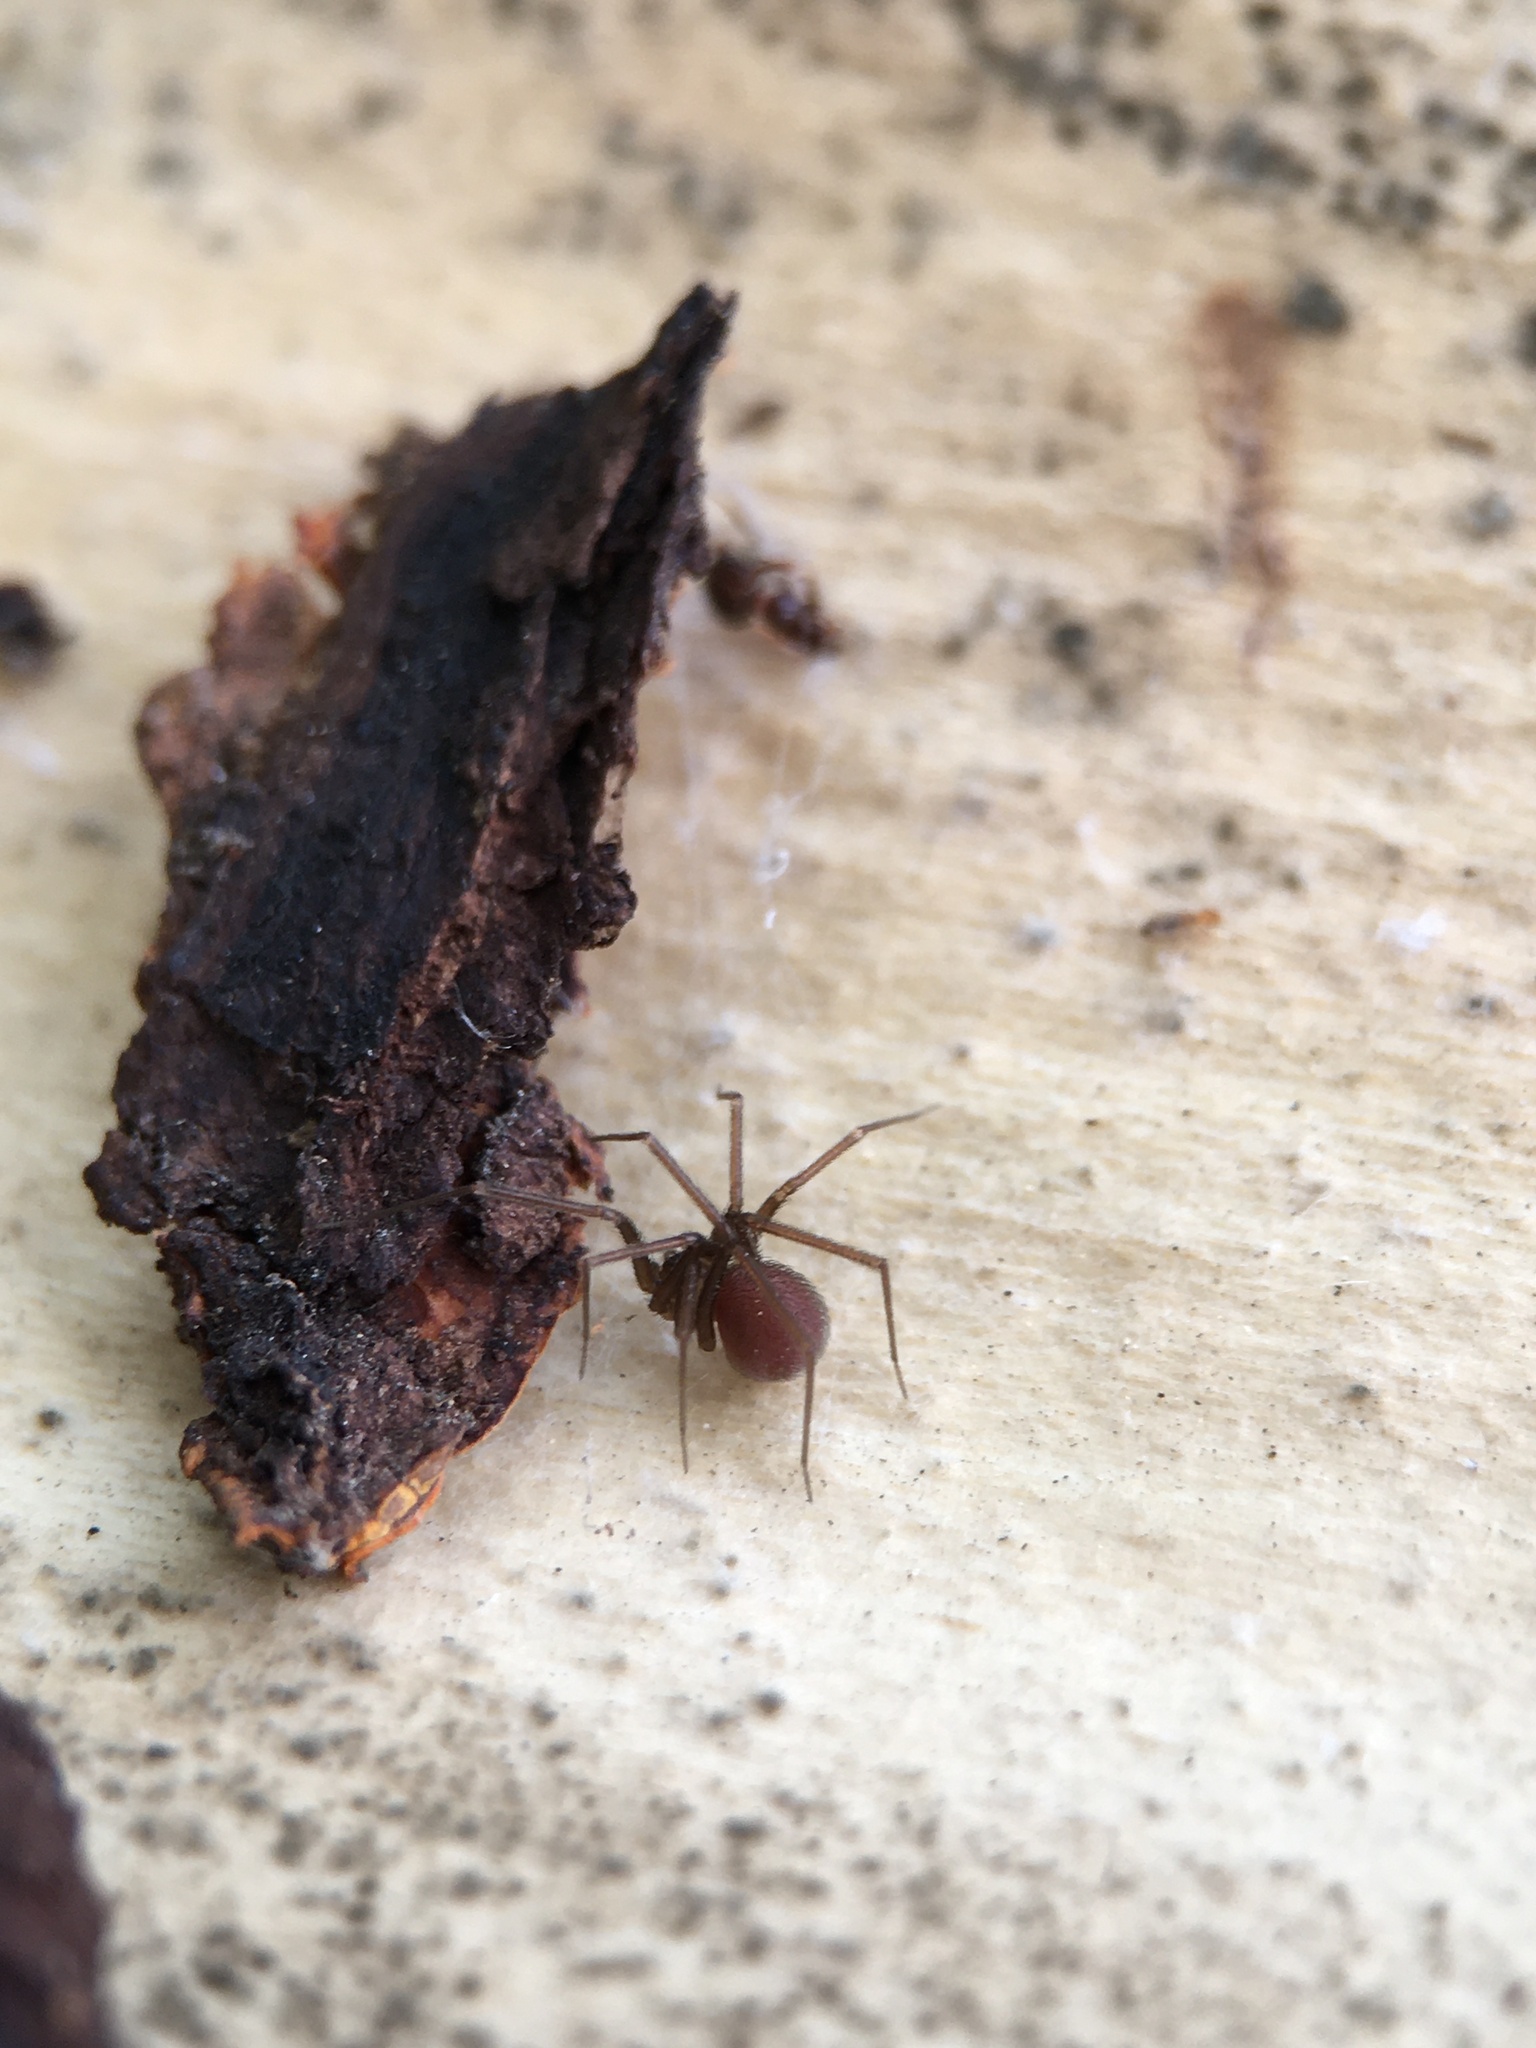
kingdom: Animalia
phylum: Arthropoda
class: Arachnida
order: Araneae
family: Pholcidae
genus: Pholcophora
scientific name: Pholcophora americana
